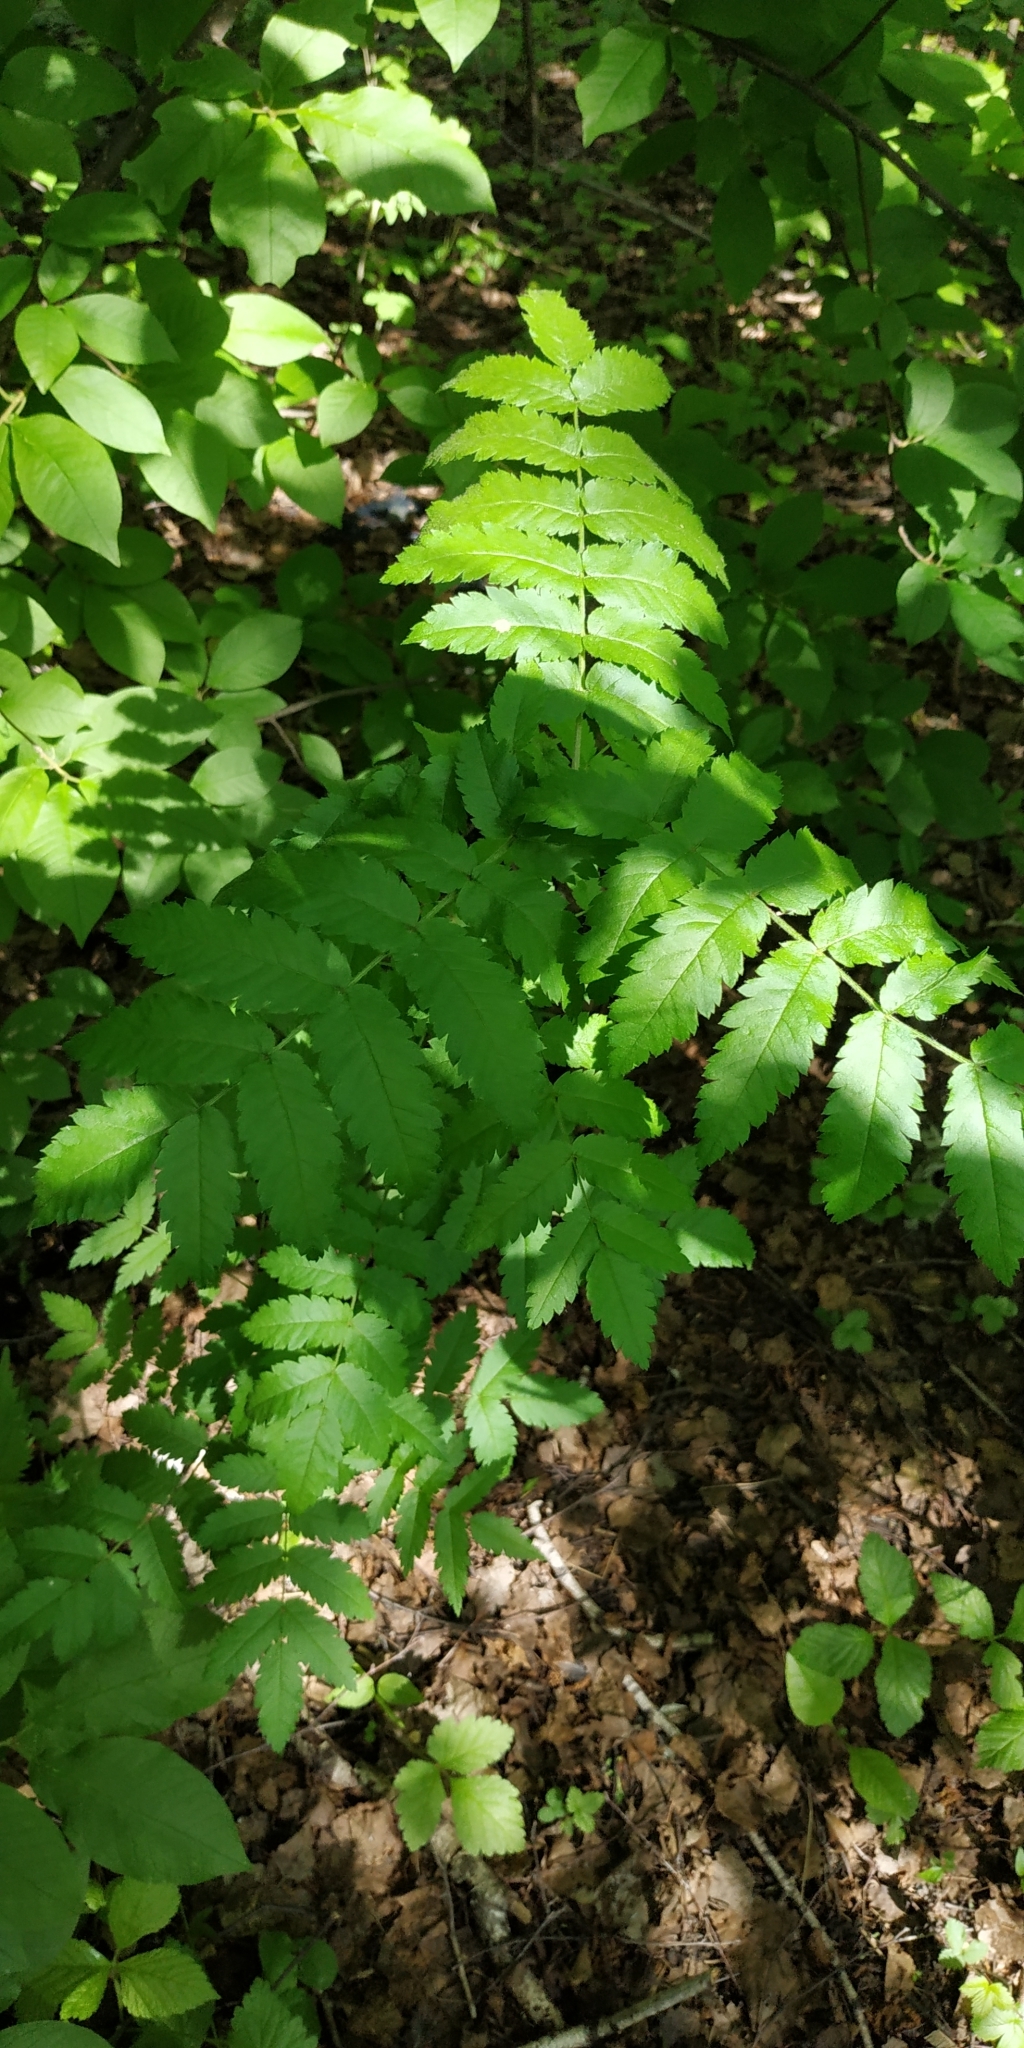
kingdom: Plantae
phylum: Tracheophyta
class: Magnoliopsida
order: Rosales
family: Rosaceae
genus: Sorbus
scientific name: Sorbus aucuparia
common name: Rowan
